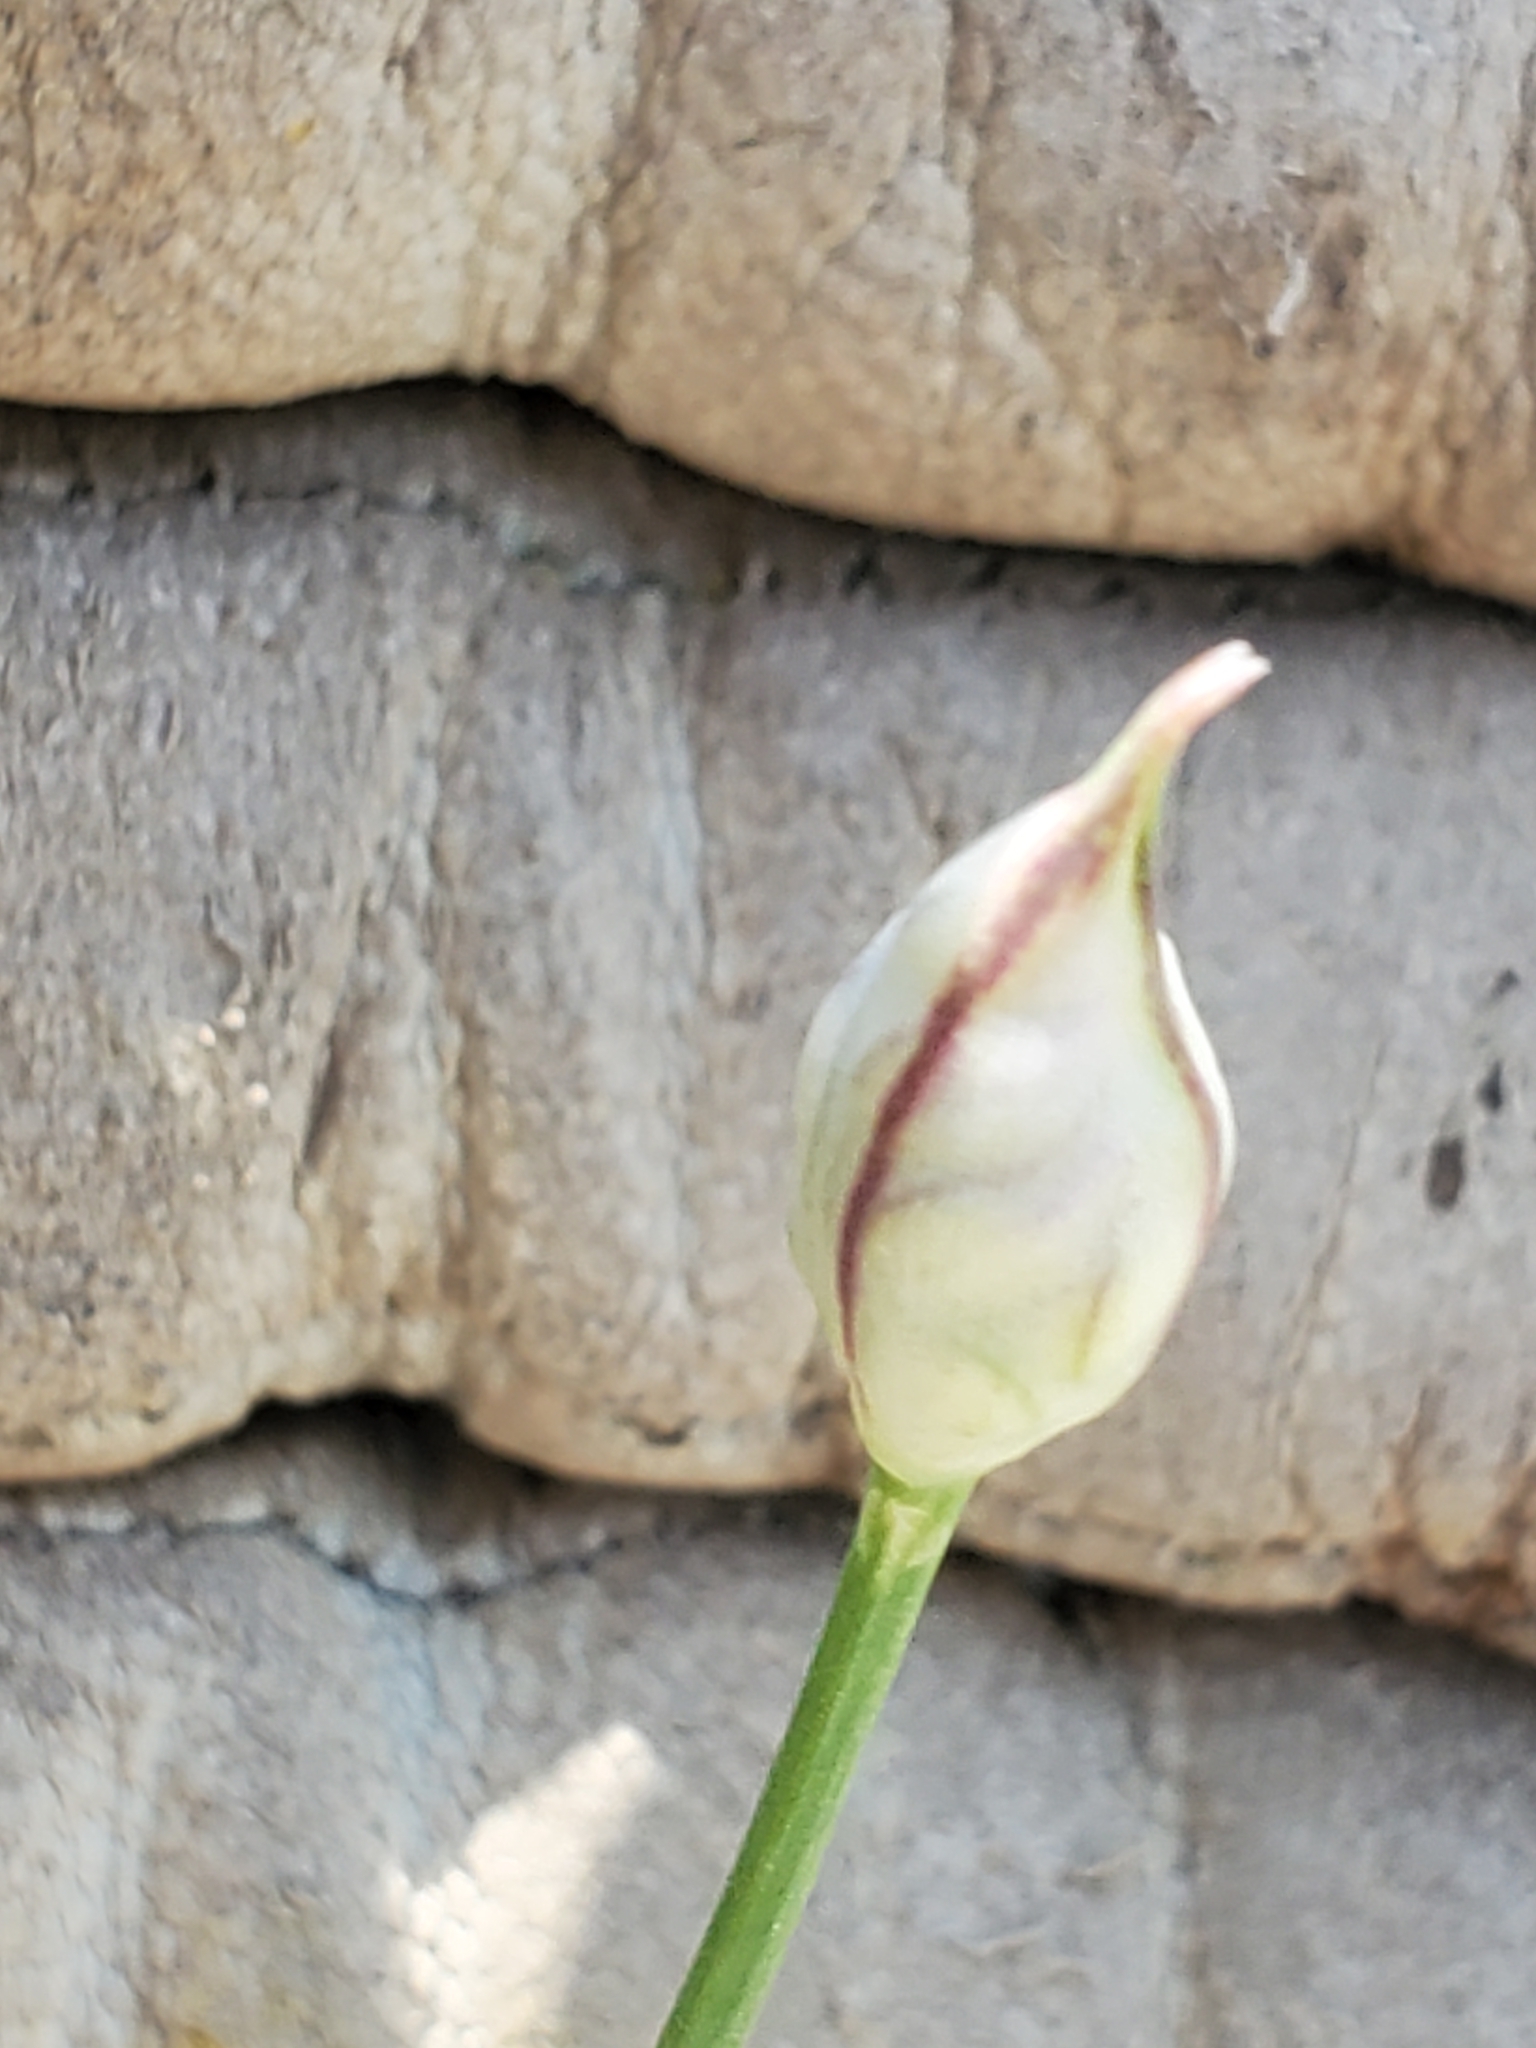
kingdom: Plantae
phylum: Tracheophyta
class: Liliopsida
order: Asparagales
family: Amaryllidaceae
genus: Allium
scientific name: Allium drummondii
